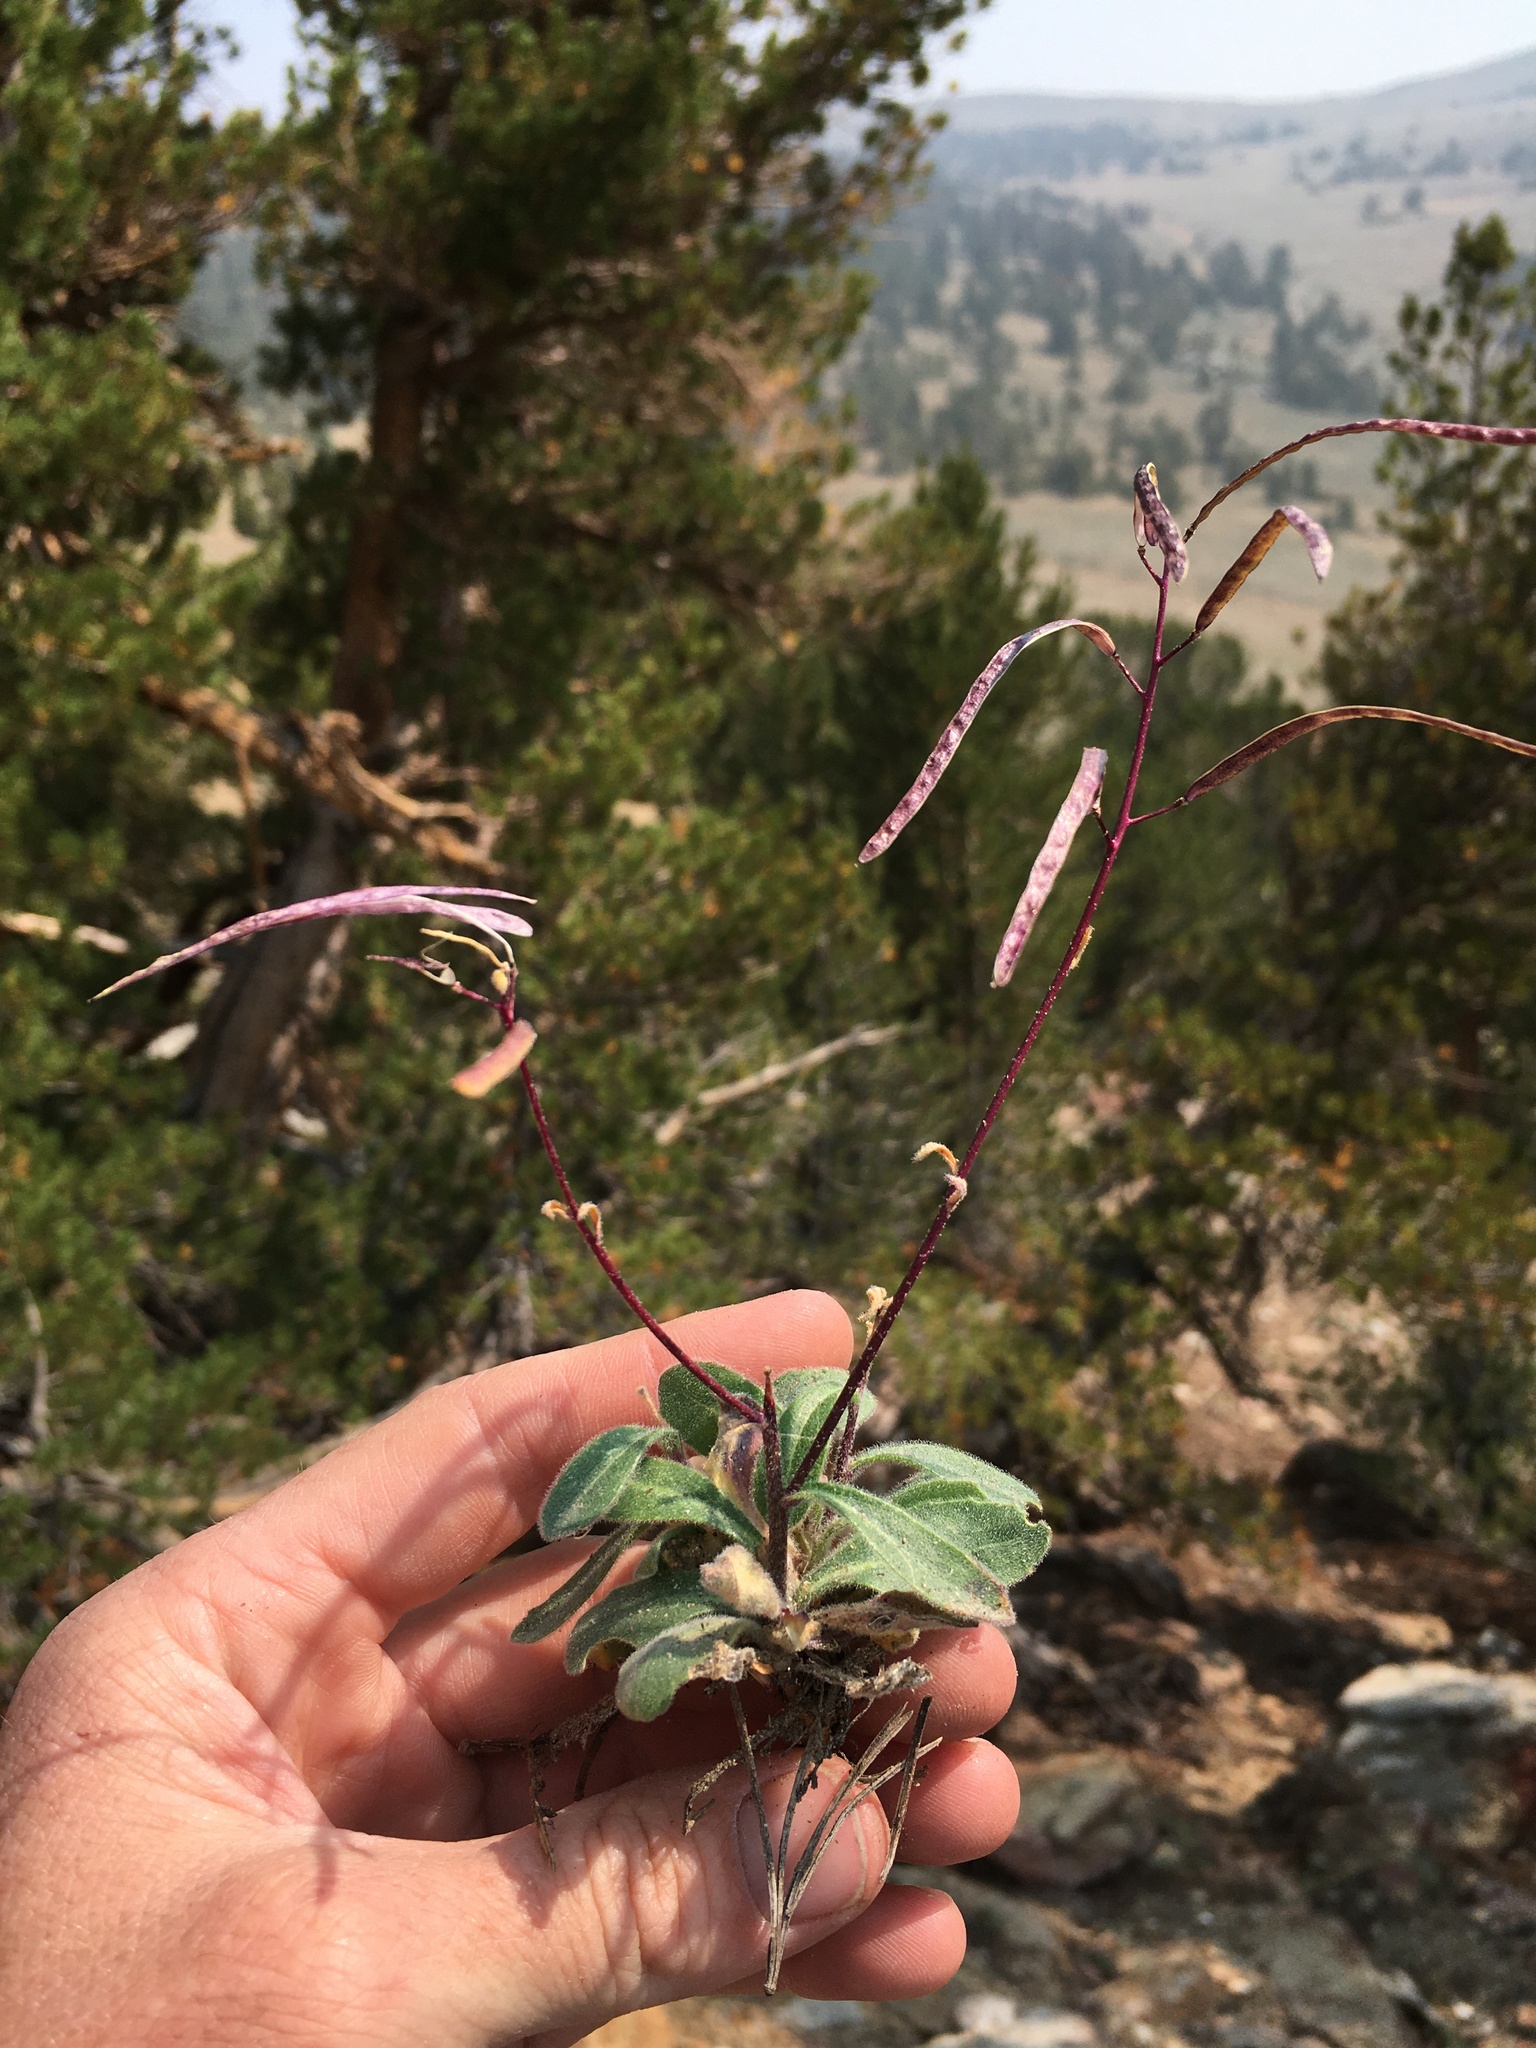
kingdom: Plantae
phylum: Tracheophyta
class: Magnoliopsida
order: Brassicales
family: Brassicaceae
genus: Yosemitea
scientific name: Yosemitea repanda
